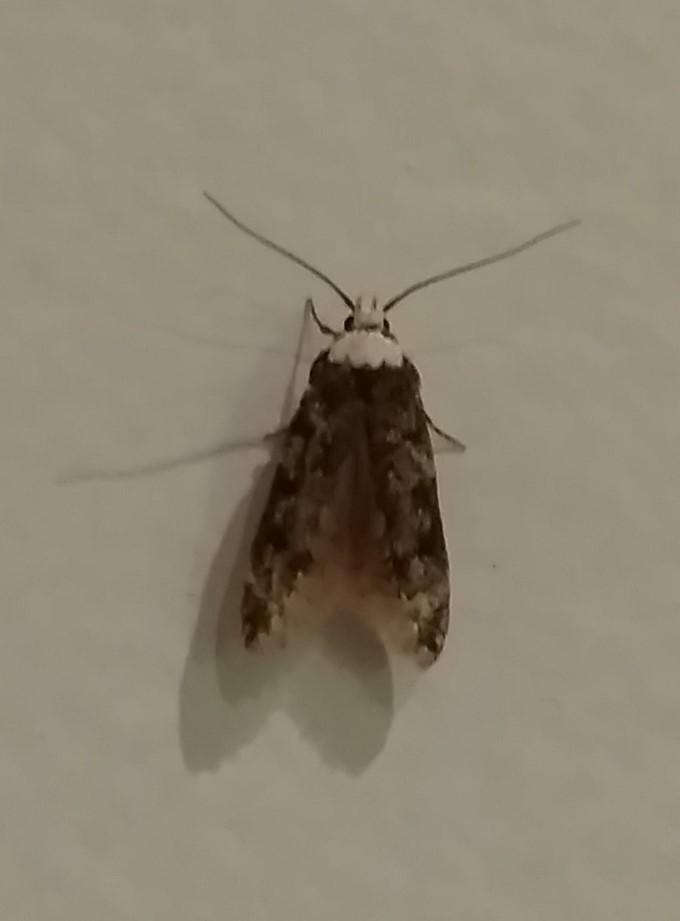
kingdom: Animalia
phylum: Arthropoda
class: Insecta
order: Lepidoptera
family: Oecophoridae
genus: Endrosis
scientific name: Endrosis sarcitrella
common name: White-shouldered house moth
